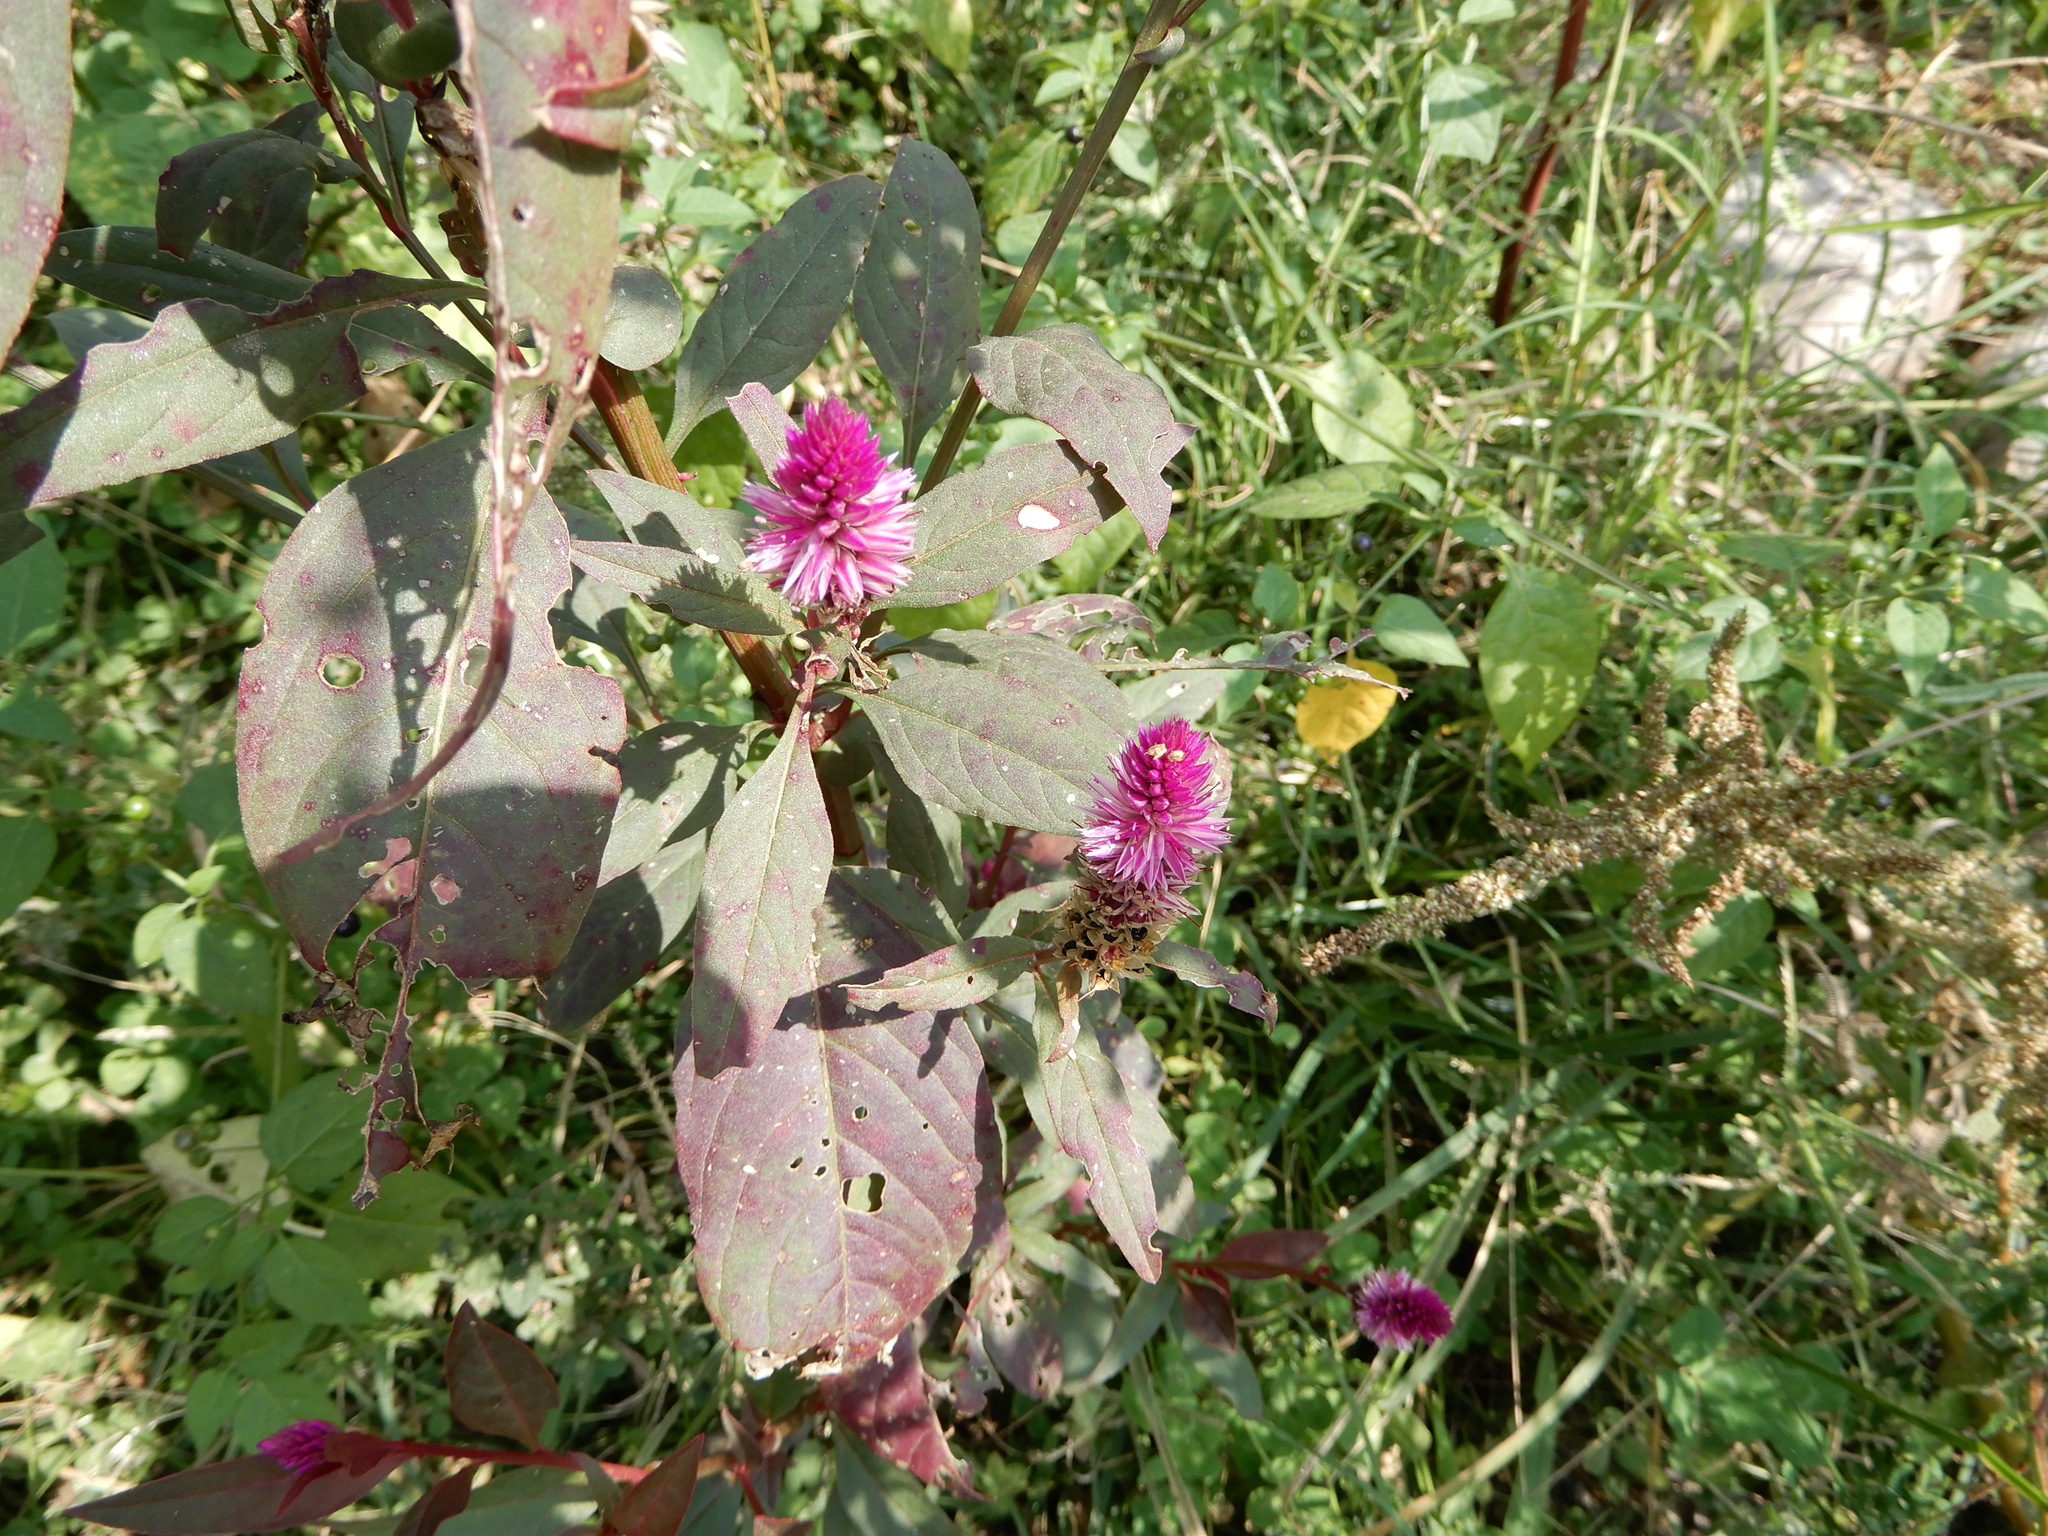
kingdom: Plantae
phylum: Tracheophyta
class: Magnoliopsida
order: Caryophyllales
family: Amaranthaceae
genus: Celosia
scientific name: Celosia argentea
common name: Feather cockscomb
